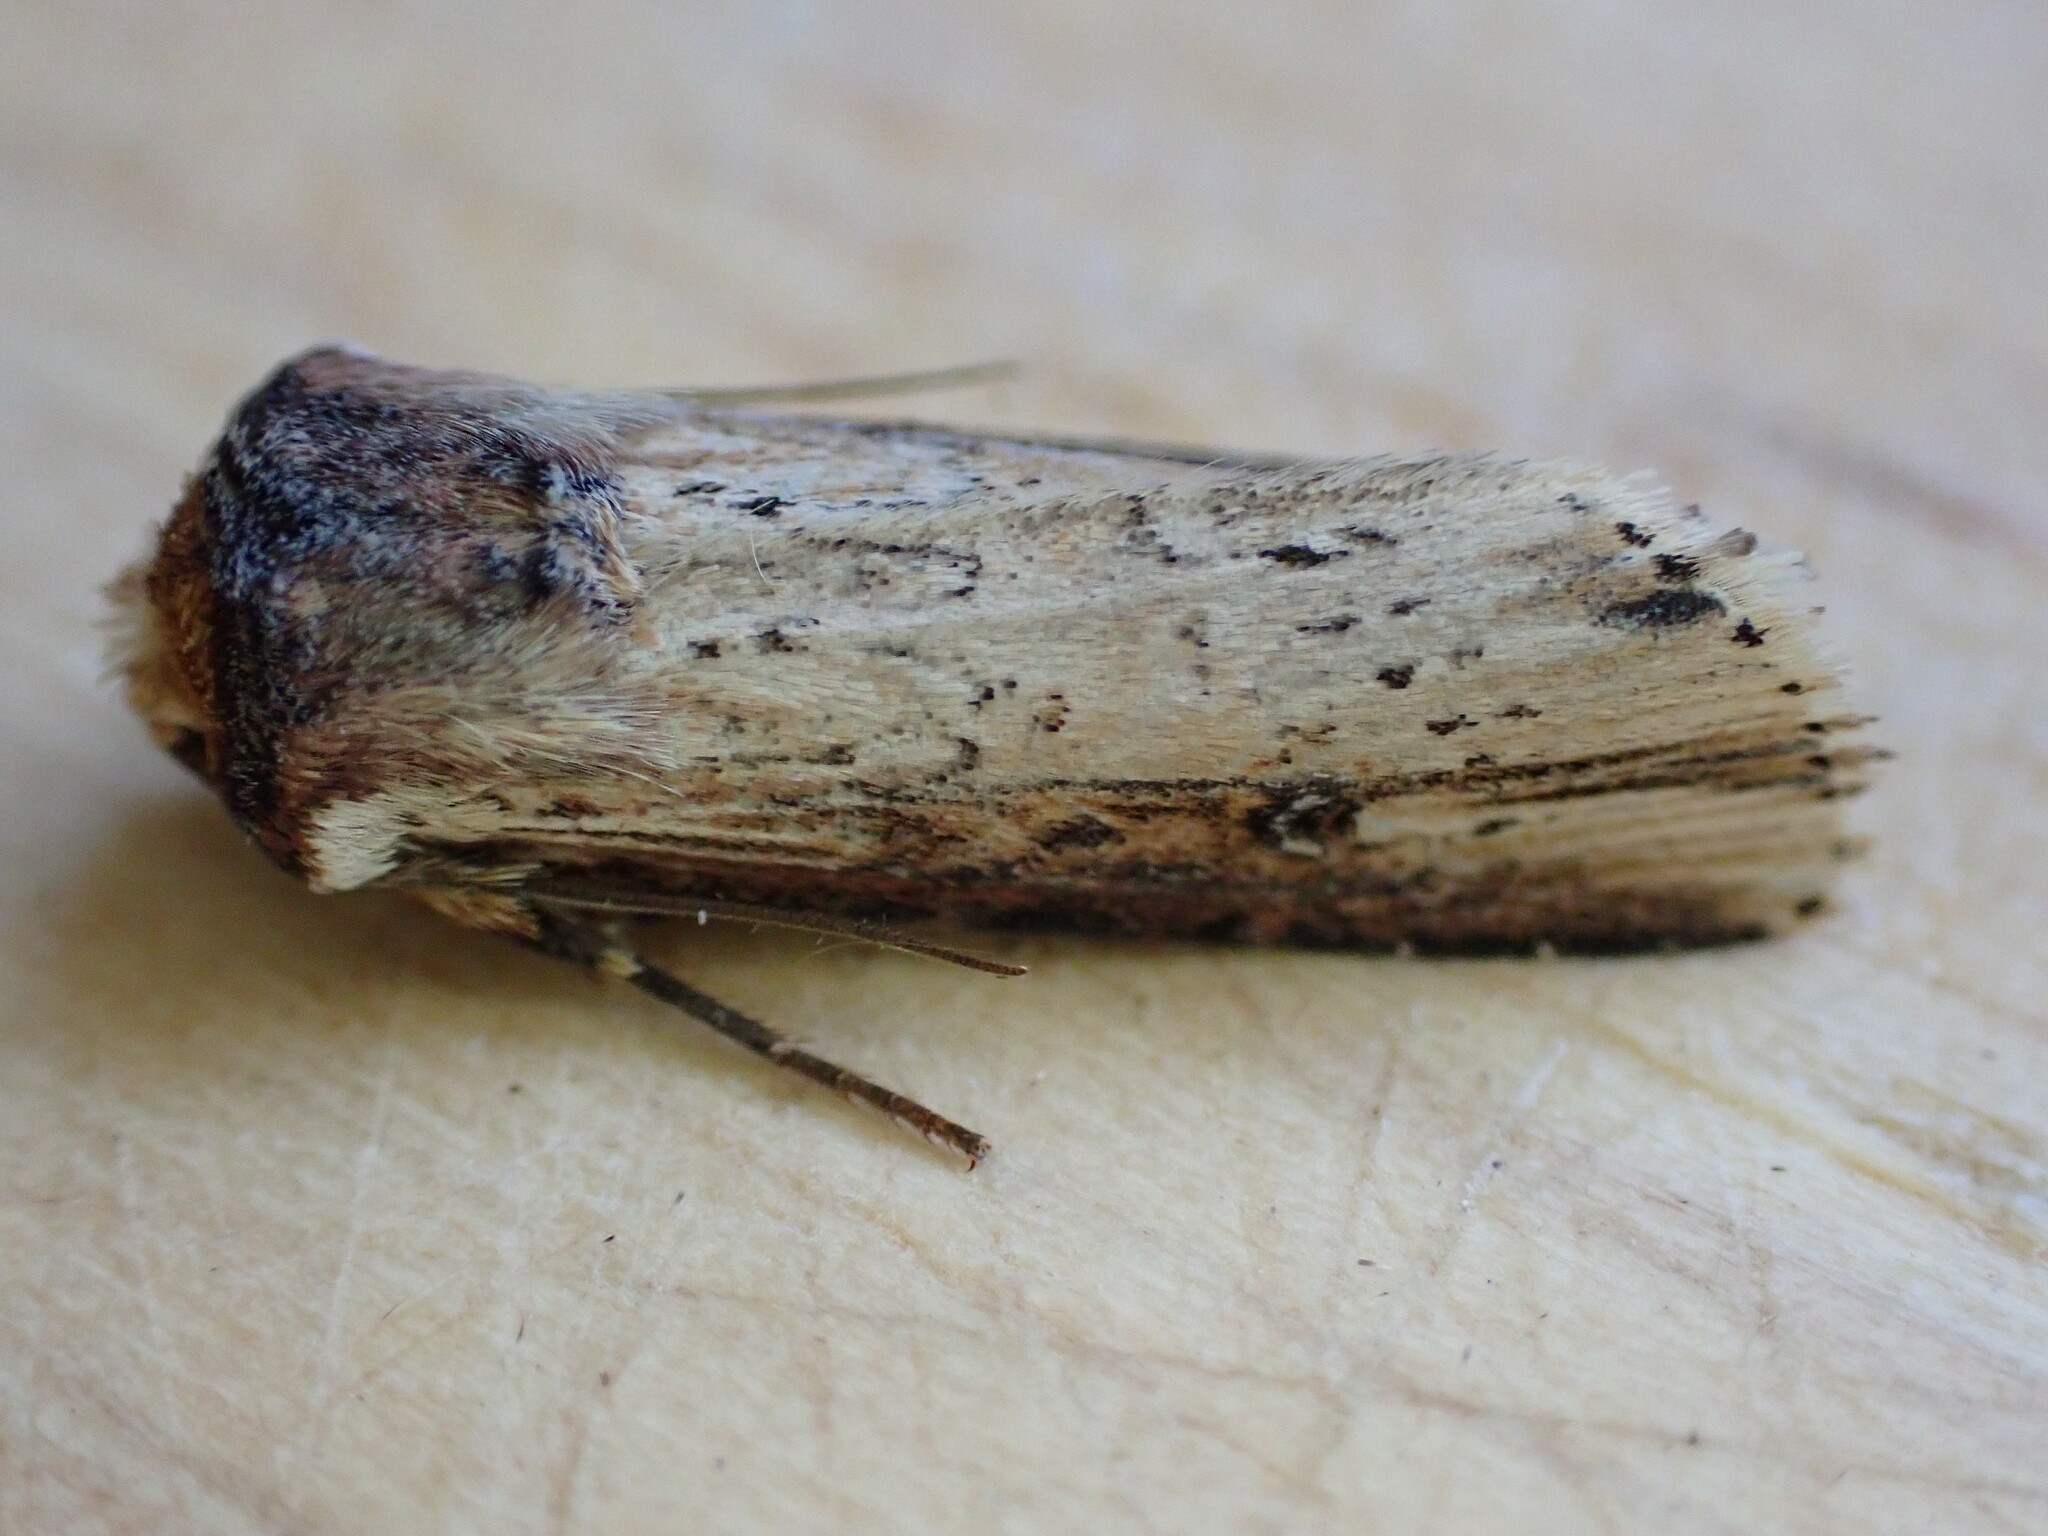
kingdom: Animalia
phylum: Arthropoda
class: Insecta
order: Lepidoptera
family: Noctuidae
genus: Axylia
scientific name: Axylia putris
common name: Flame
